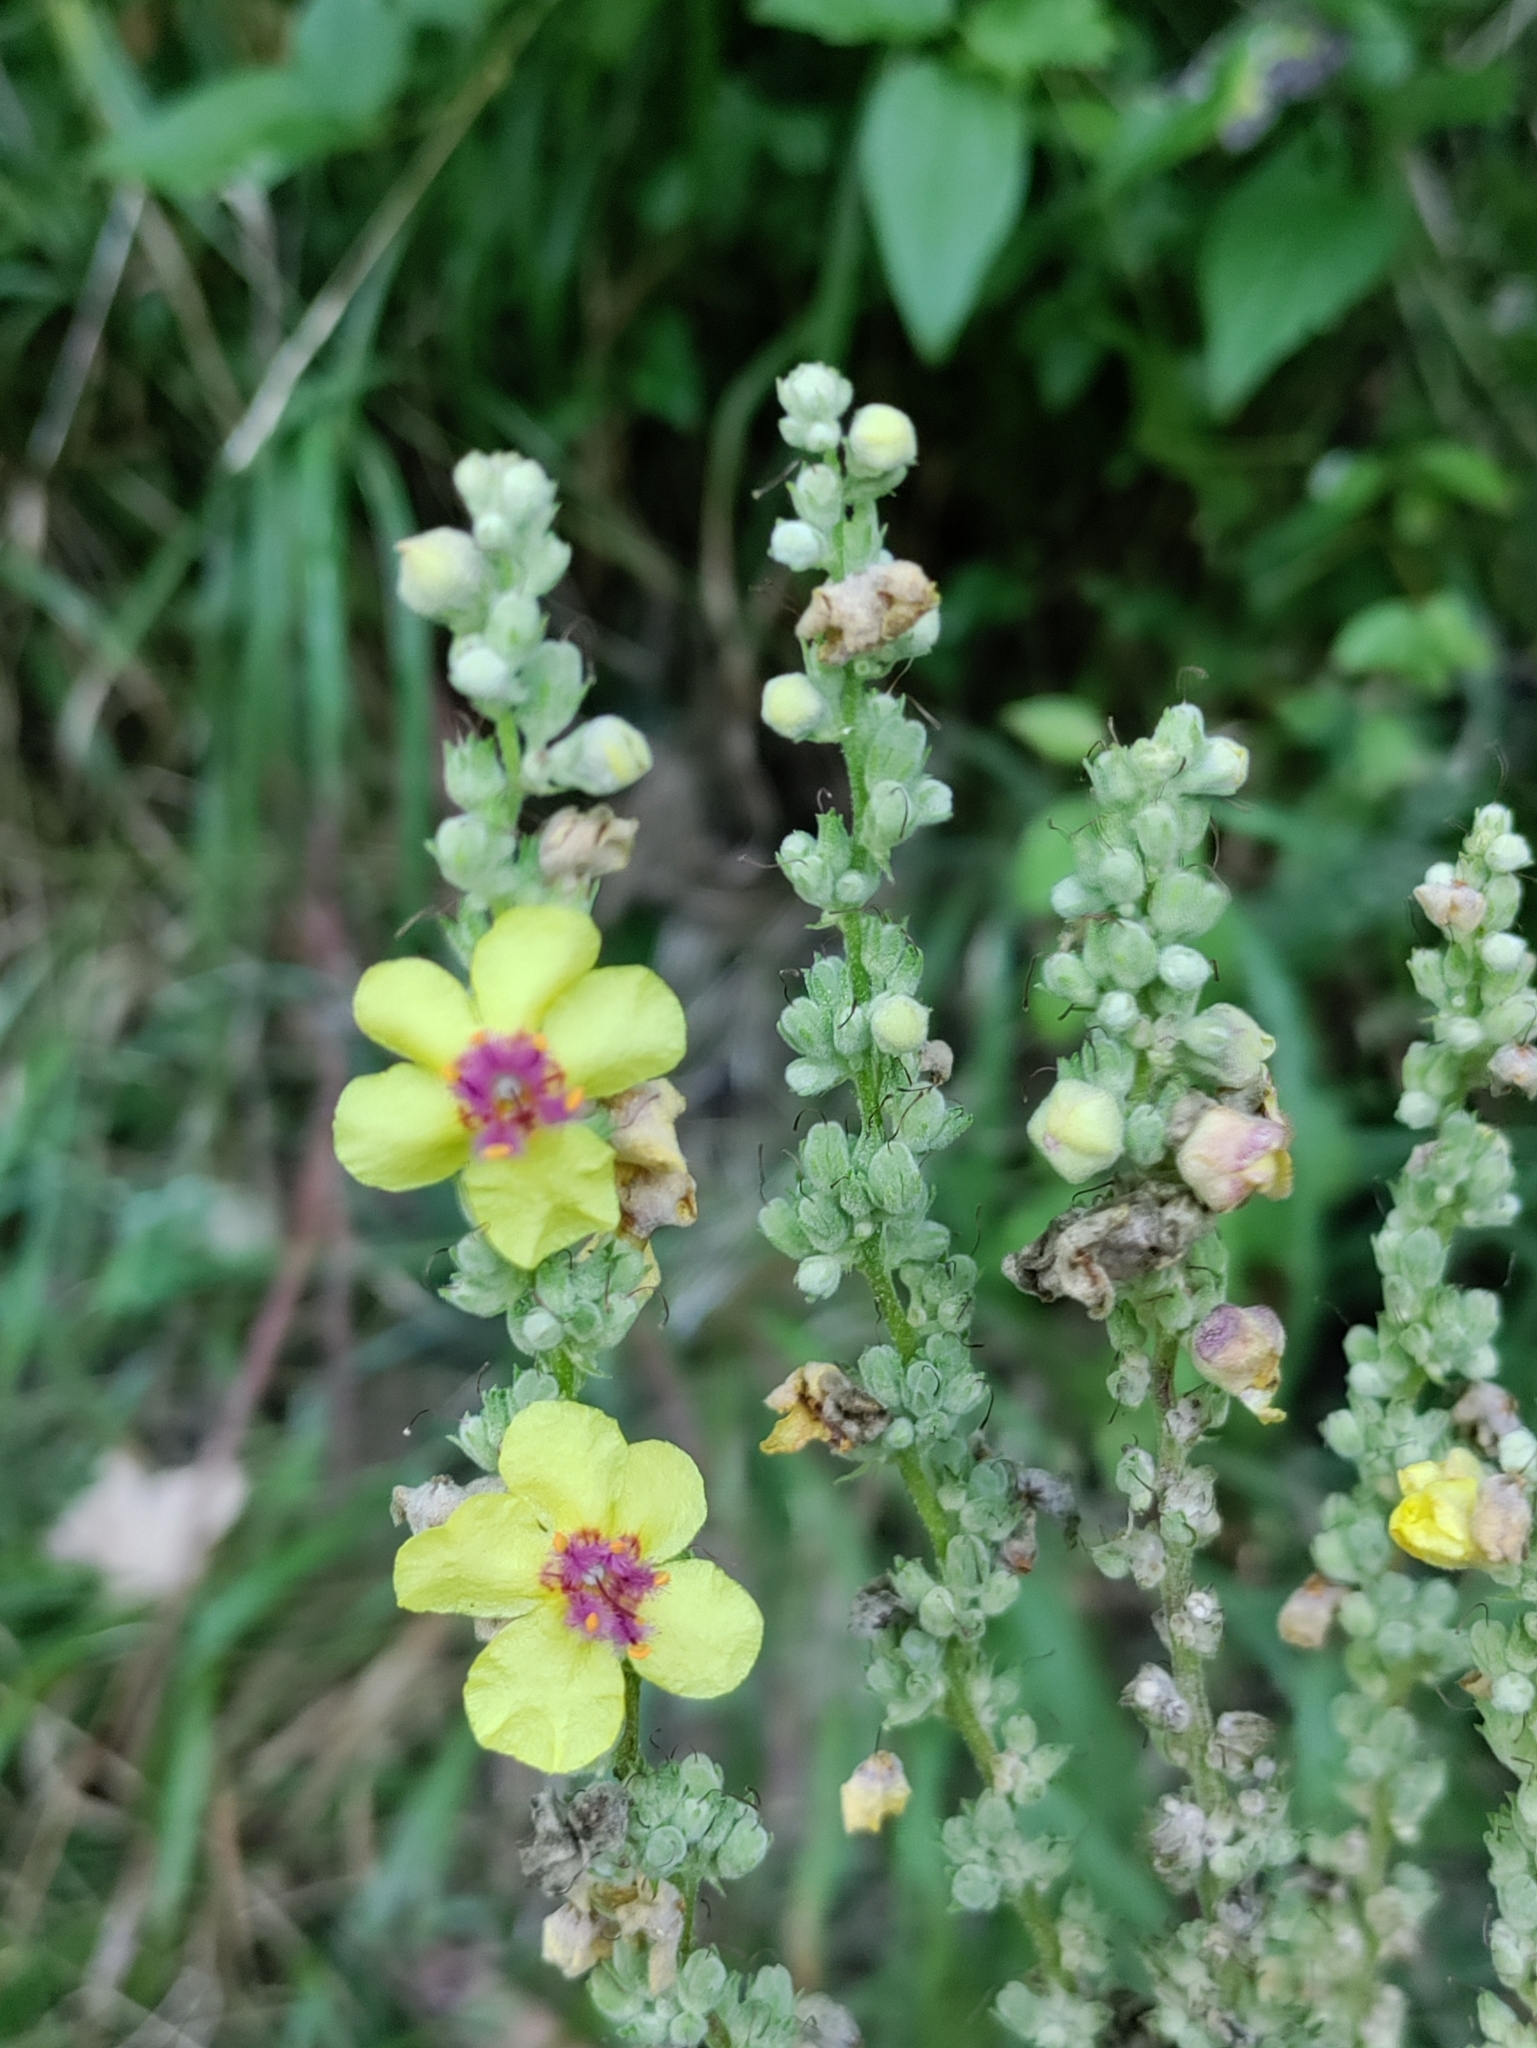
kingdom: Plantae
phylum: Tracheophyta
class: Magnoliopsida
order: Lamiales
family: Scrophulariaceae
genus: Verbascum
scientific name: Verbascum chaixii
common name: Nettle-leaved mullein
